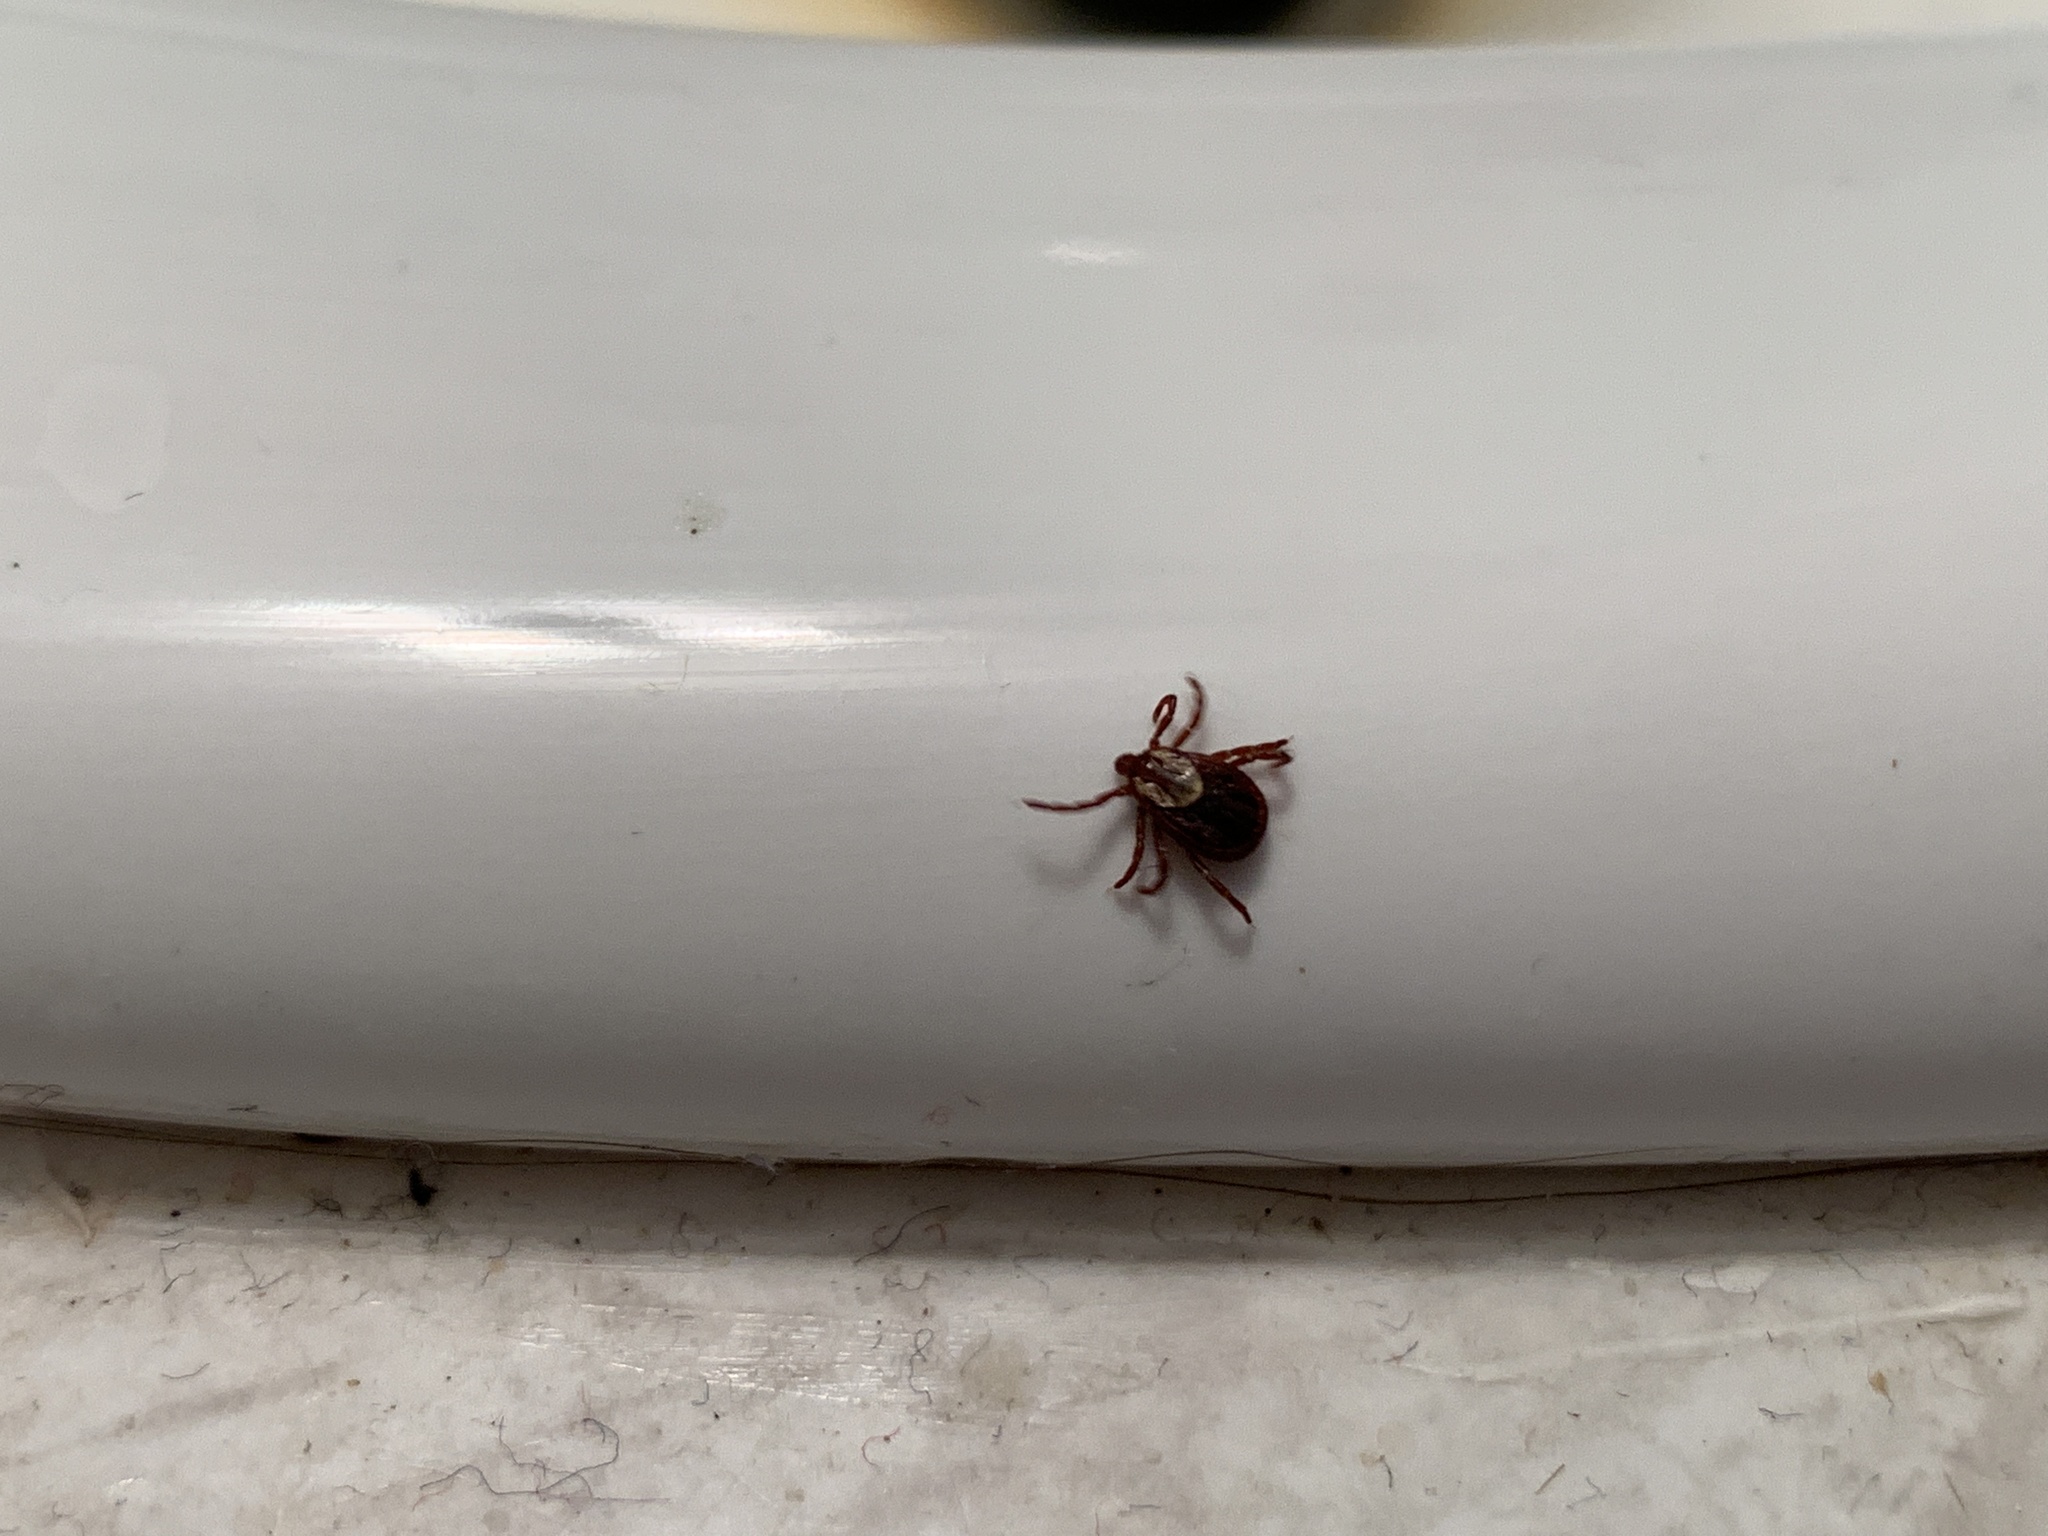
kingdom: Animalia
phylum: Arthropoda
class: Arachnida
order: Ixodida
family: Ixodidae
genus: Dermacentor
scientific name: Dermacentor variabilis
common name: American dog tick
